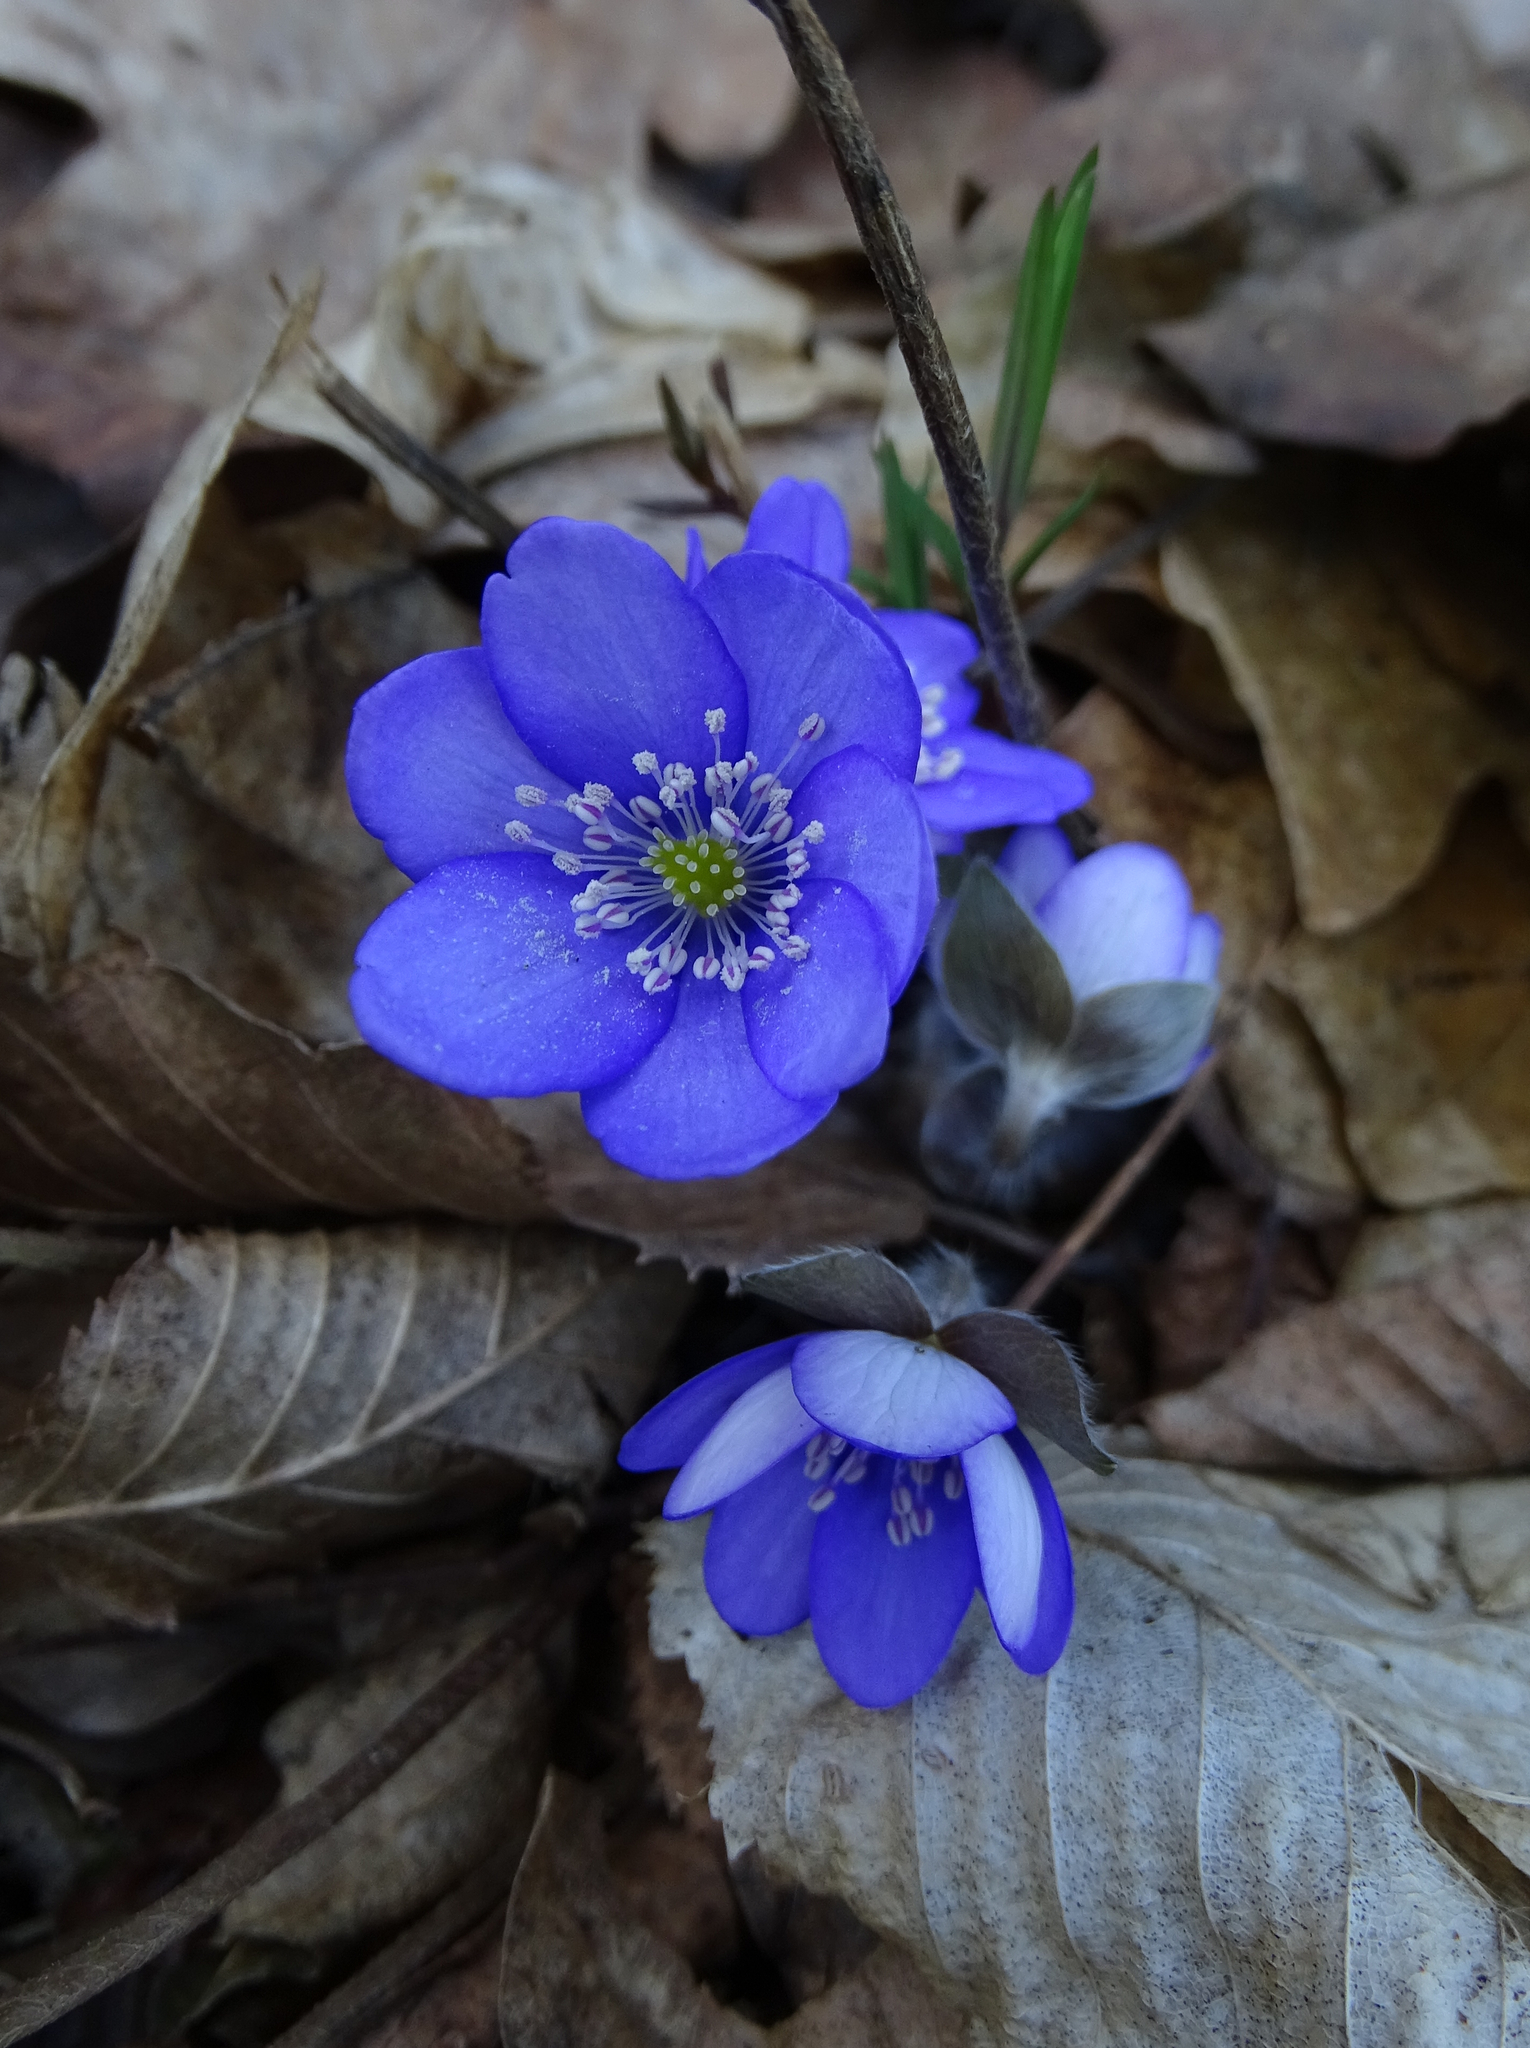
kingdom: Plantae
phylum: Tracheophyta
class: Magnoliopsida
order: Ranunculales
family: Ranunculaceae
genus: Hepatica
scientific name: Hepatica nobilis
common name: Liverleaf
